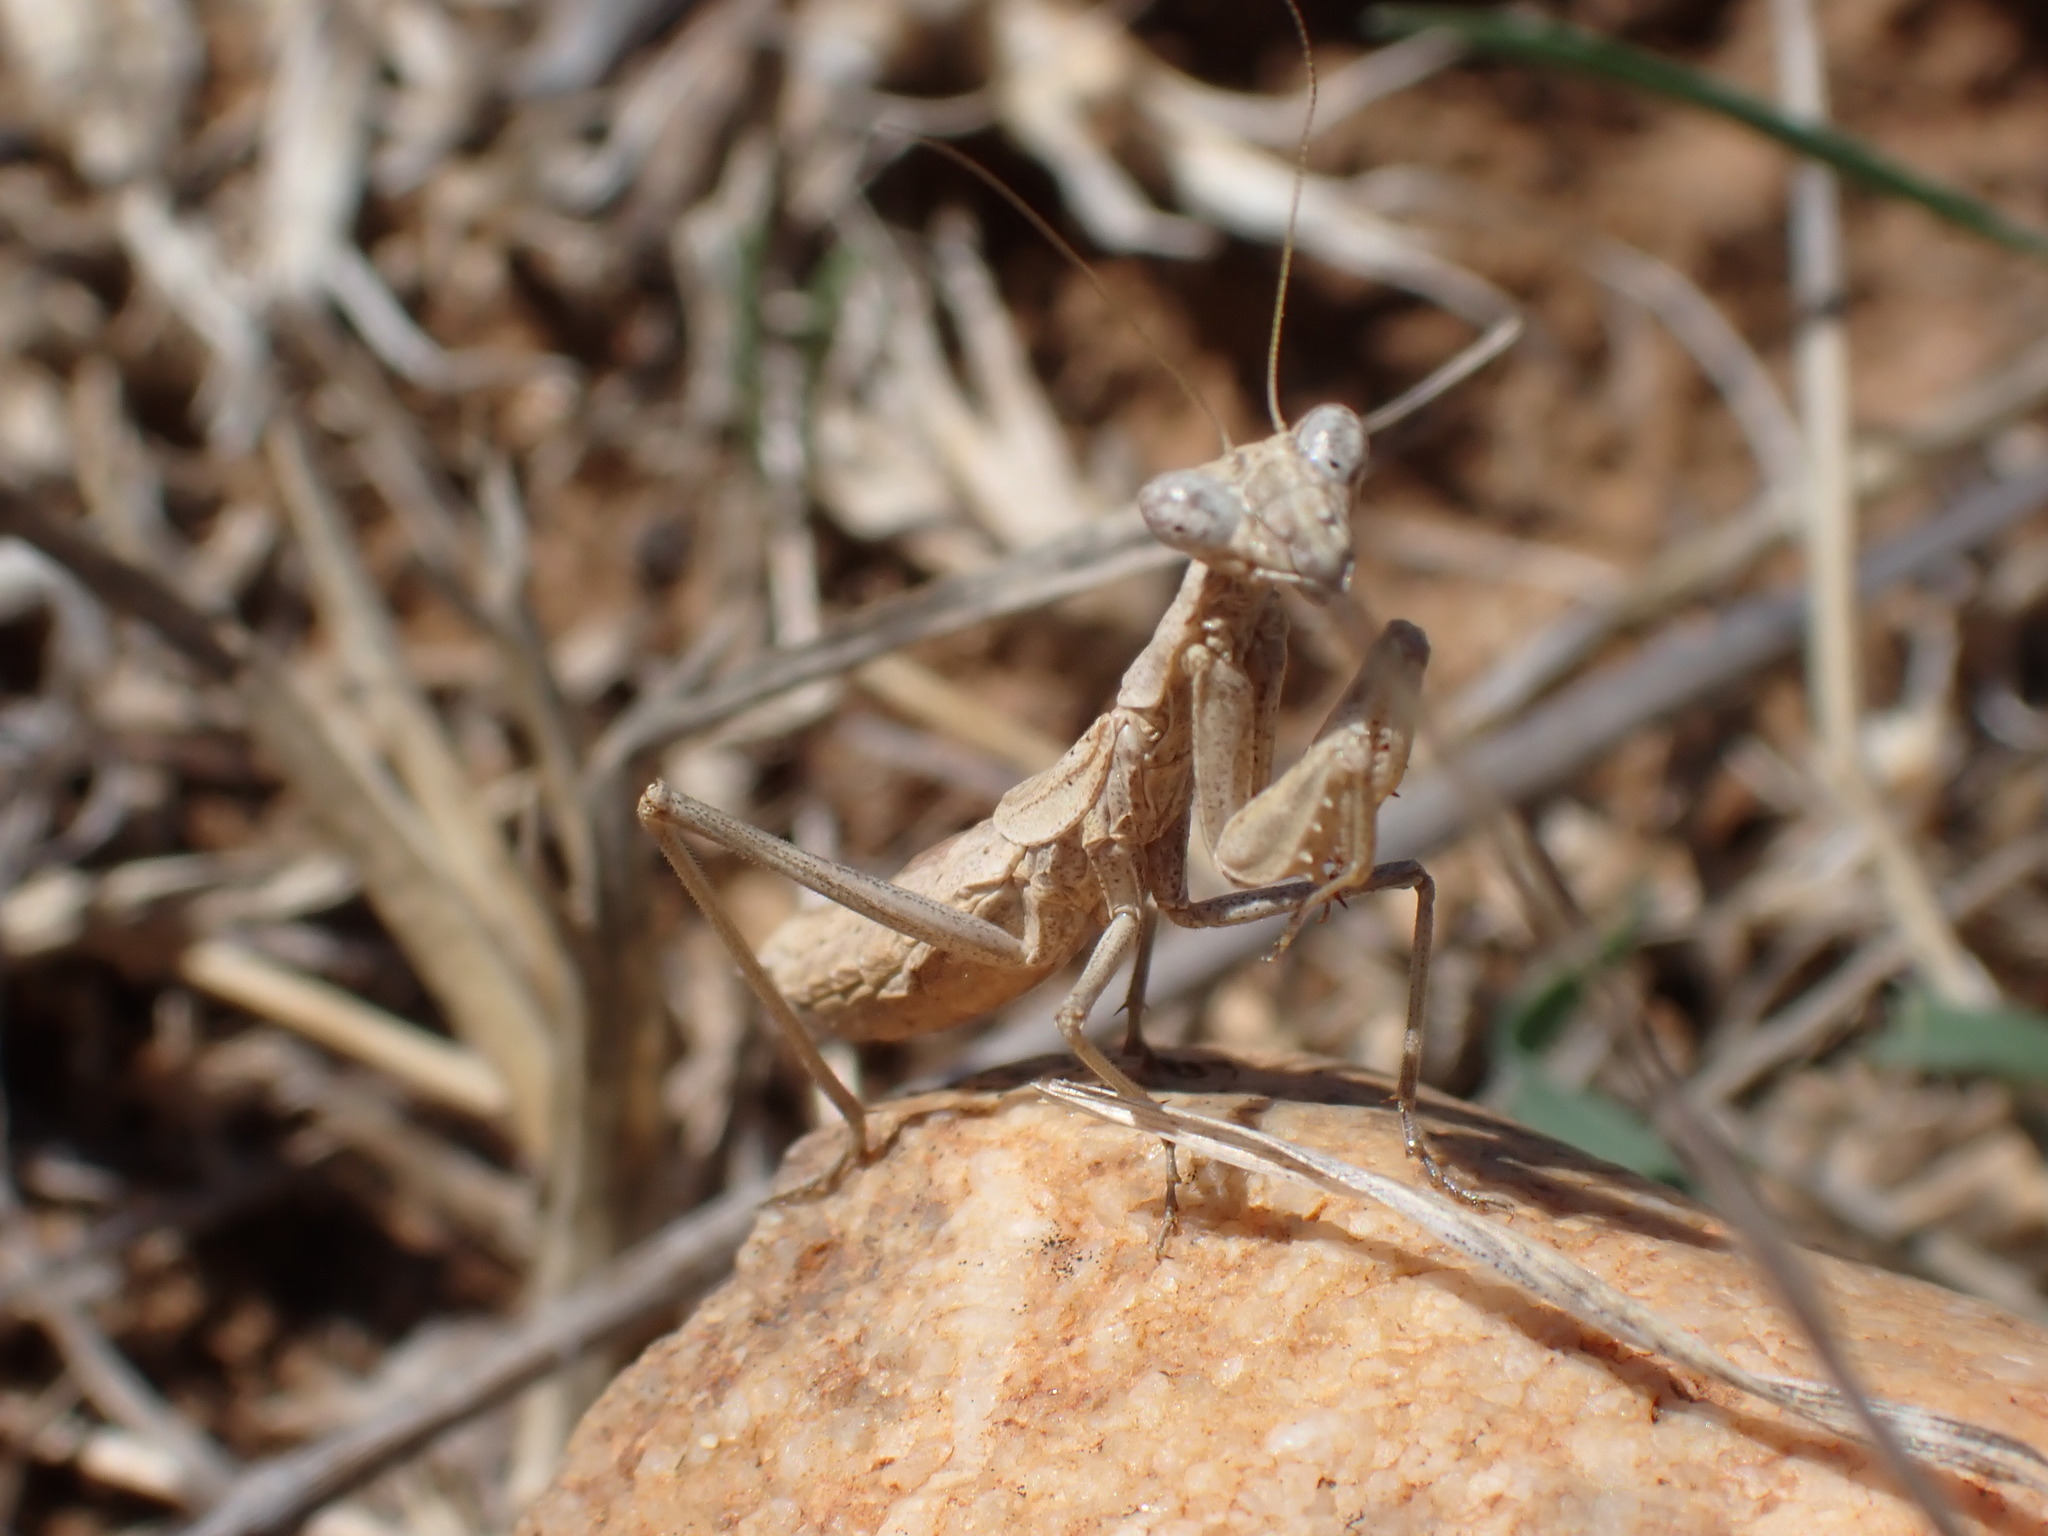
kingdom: Animalia
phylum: Arthropoda
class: Insecta
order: Mantodea
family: Amelidae
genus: Ameles
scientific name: Ameles decolor
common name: Dwarf mantis
